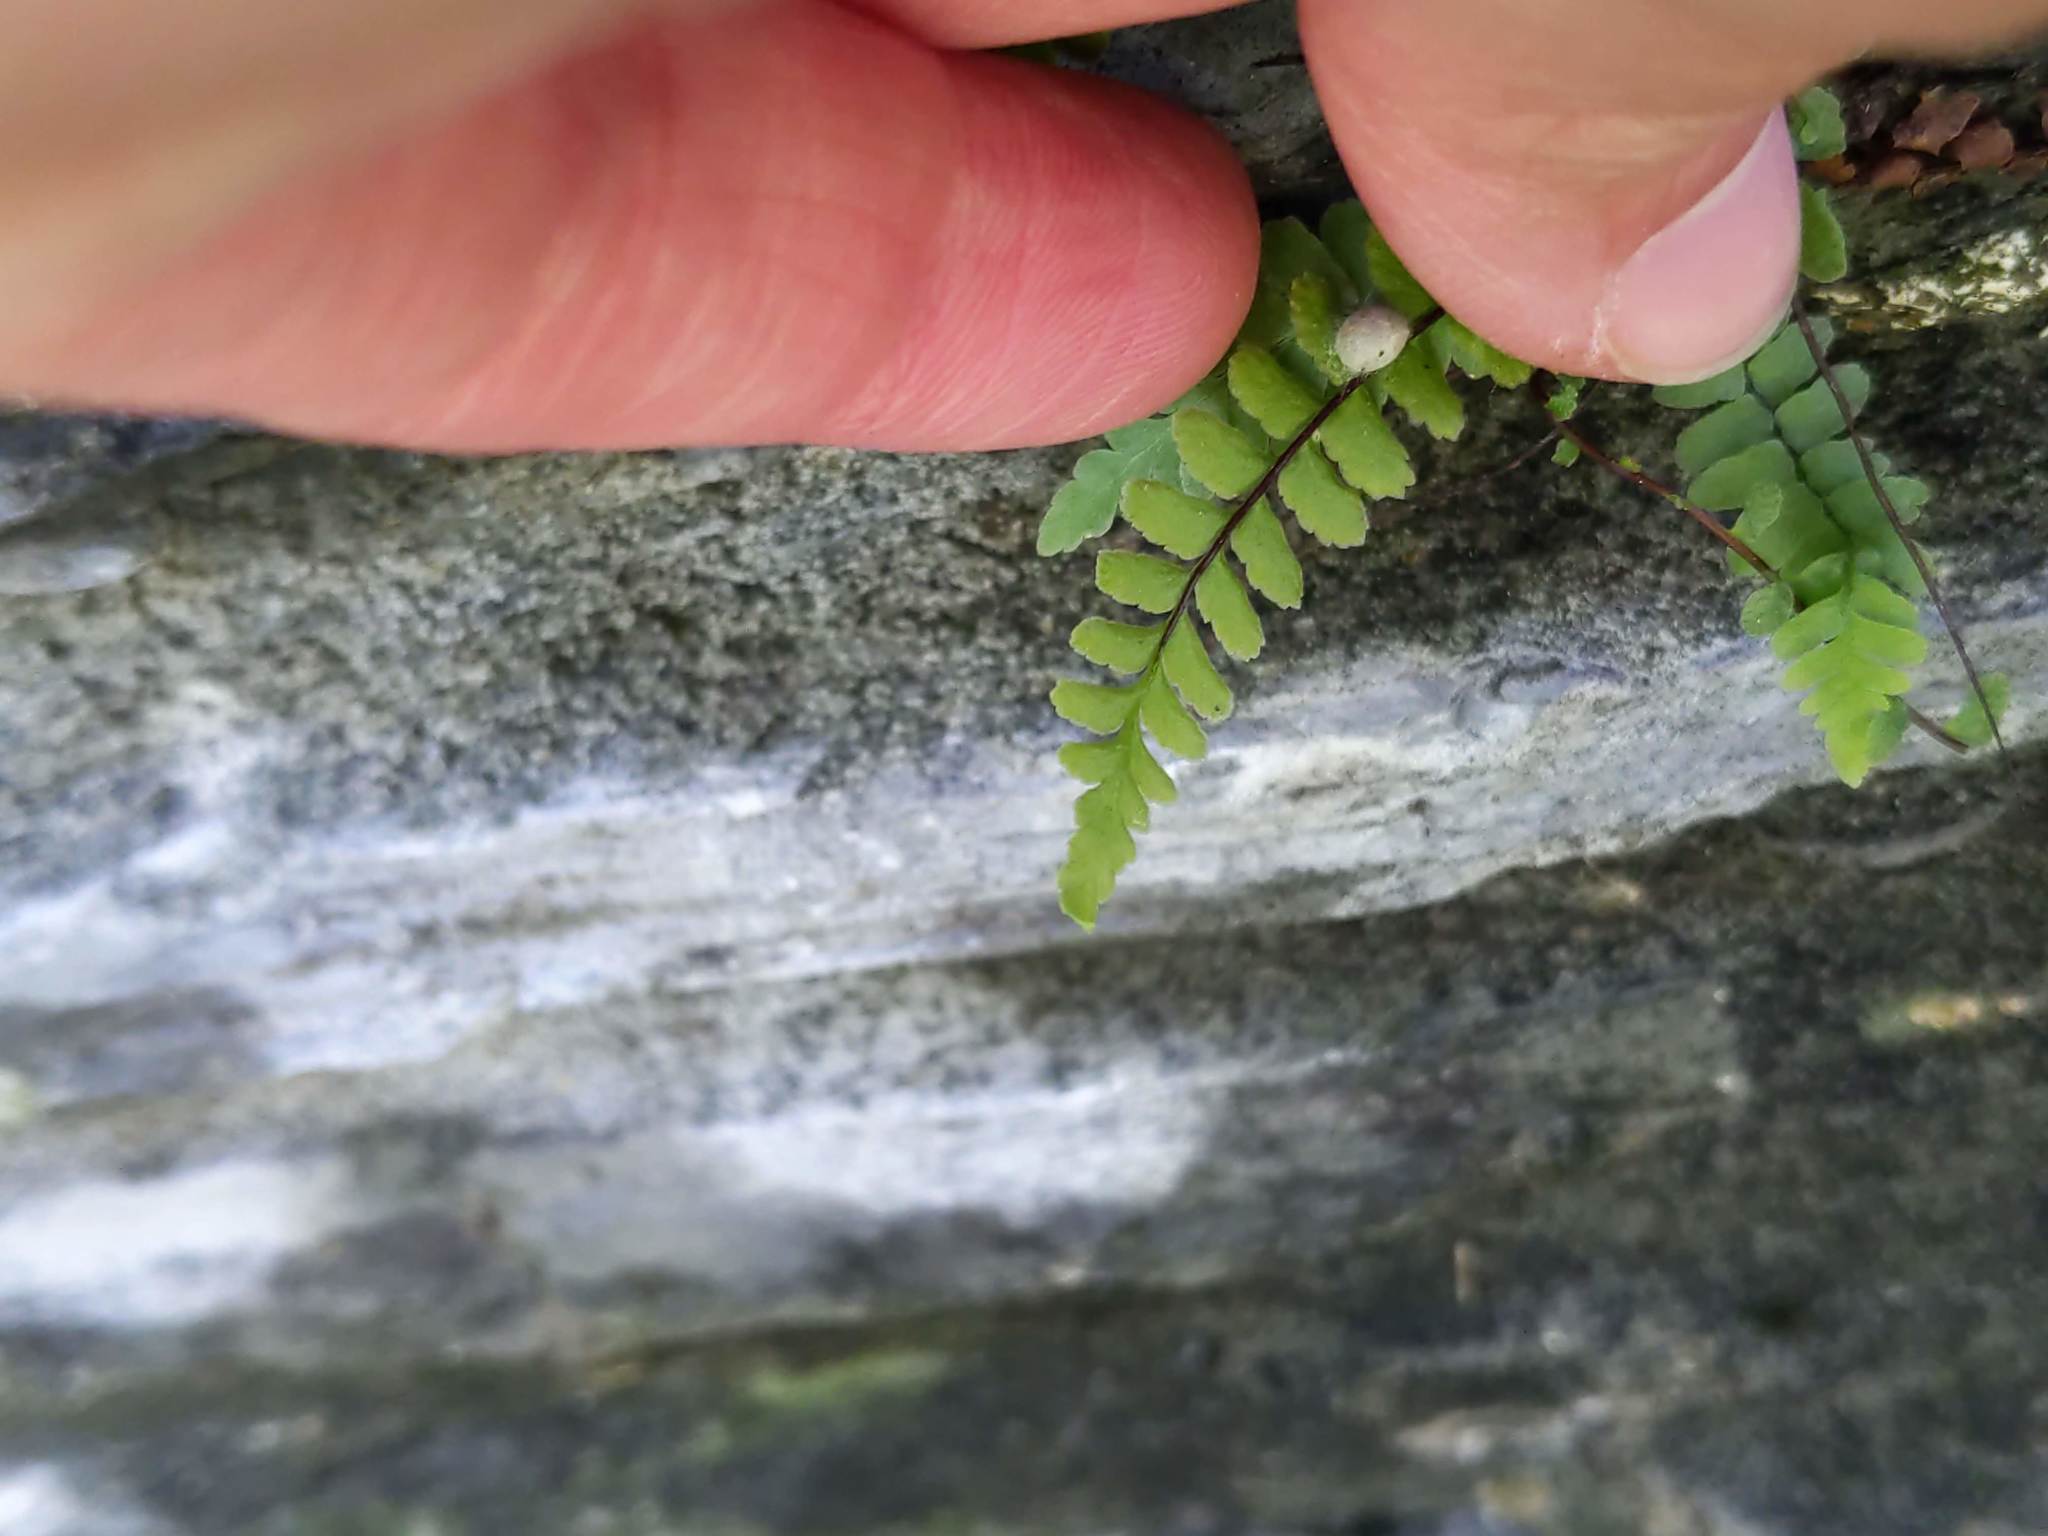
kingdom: Plantae
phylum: Tracheophyta
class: Polypodiopsida
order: Polypodiales
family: Aspleniaceae
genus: Asplenium
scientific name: Asplenium platyneuron
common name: Ebony spleenwort
